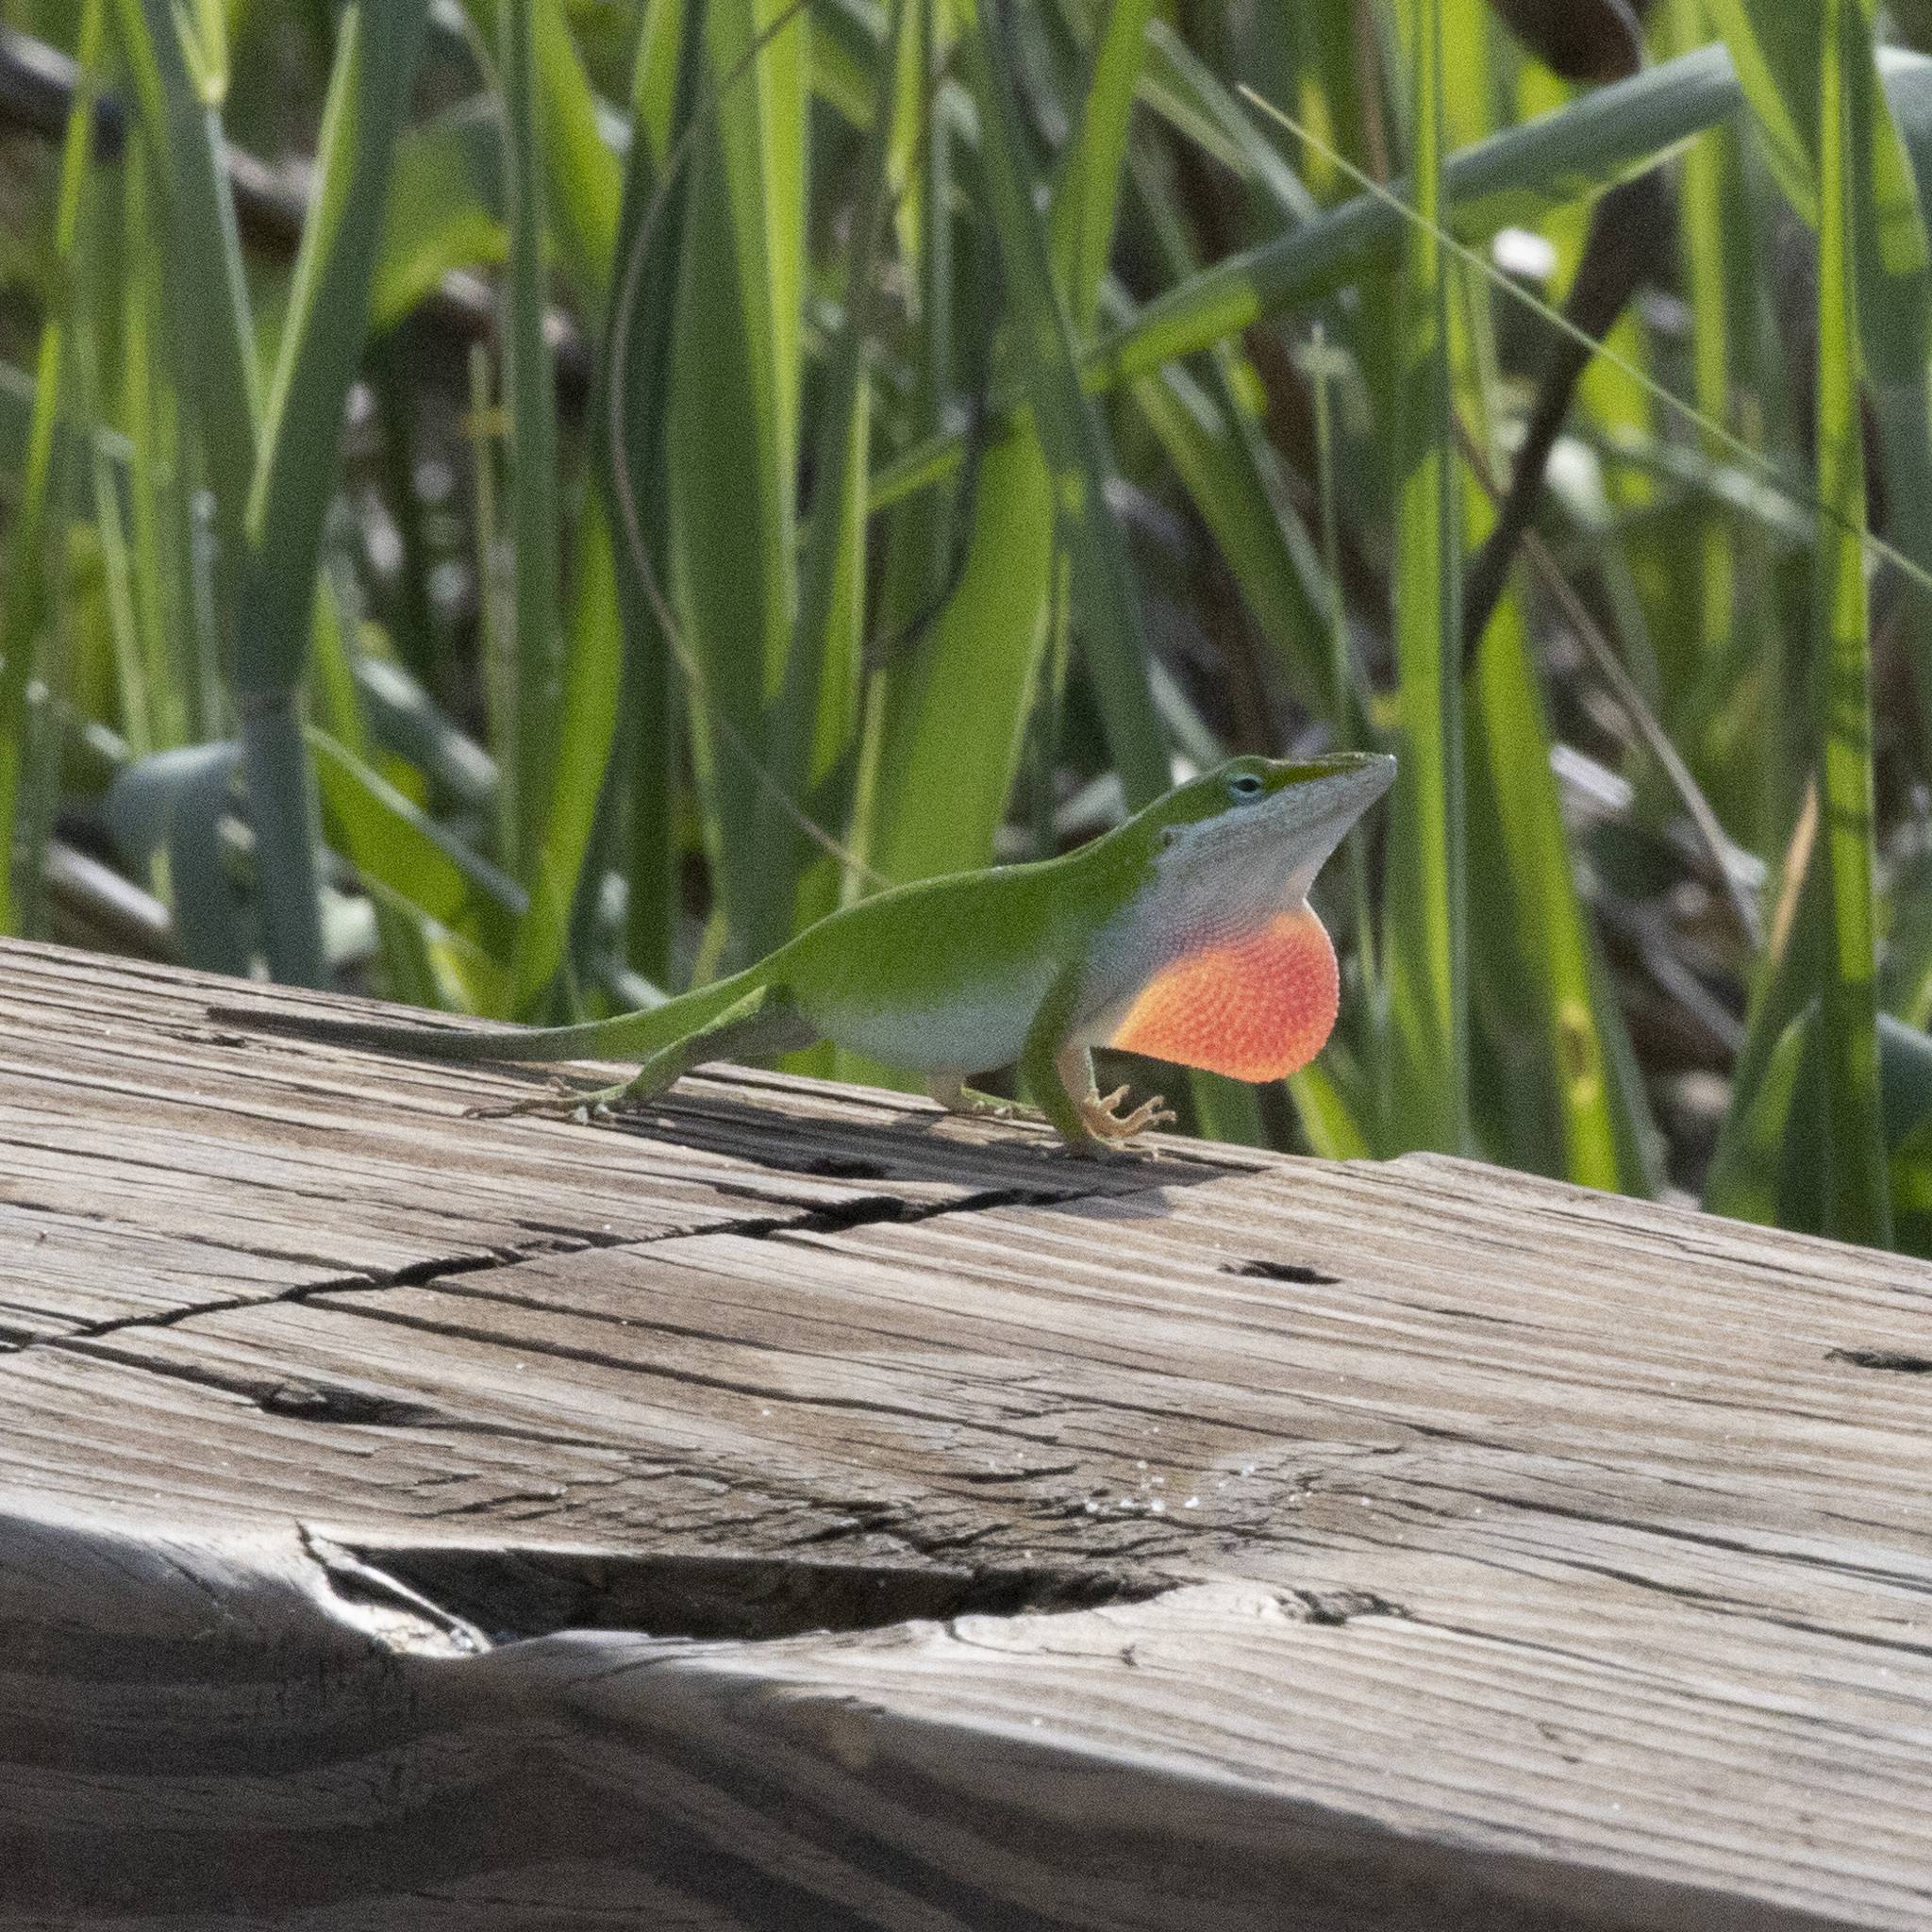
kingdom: Animalia
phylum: Chordata
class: Squamata
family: Dactyloidae
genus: Anolis
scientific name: Anolis carolinensis
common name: Green anole
